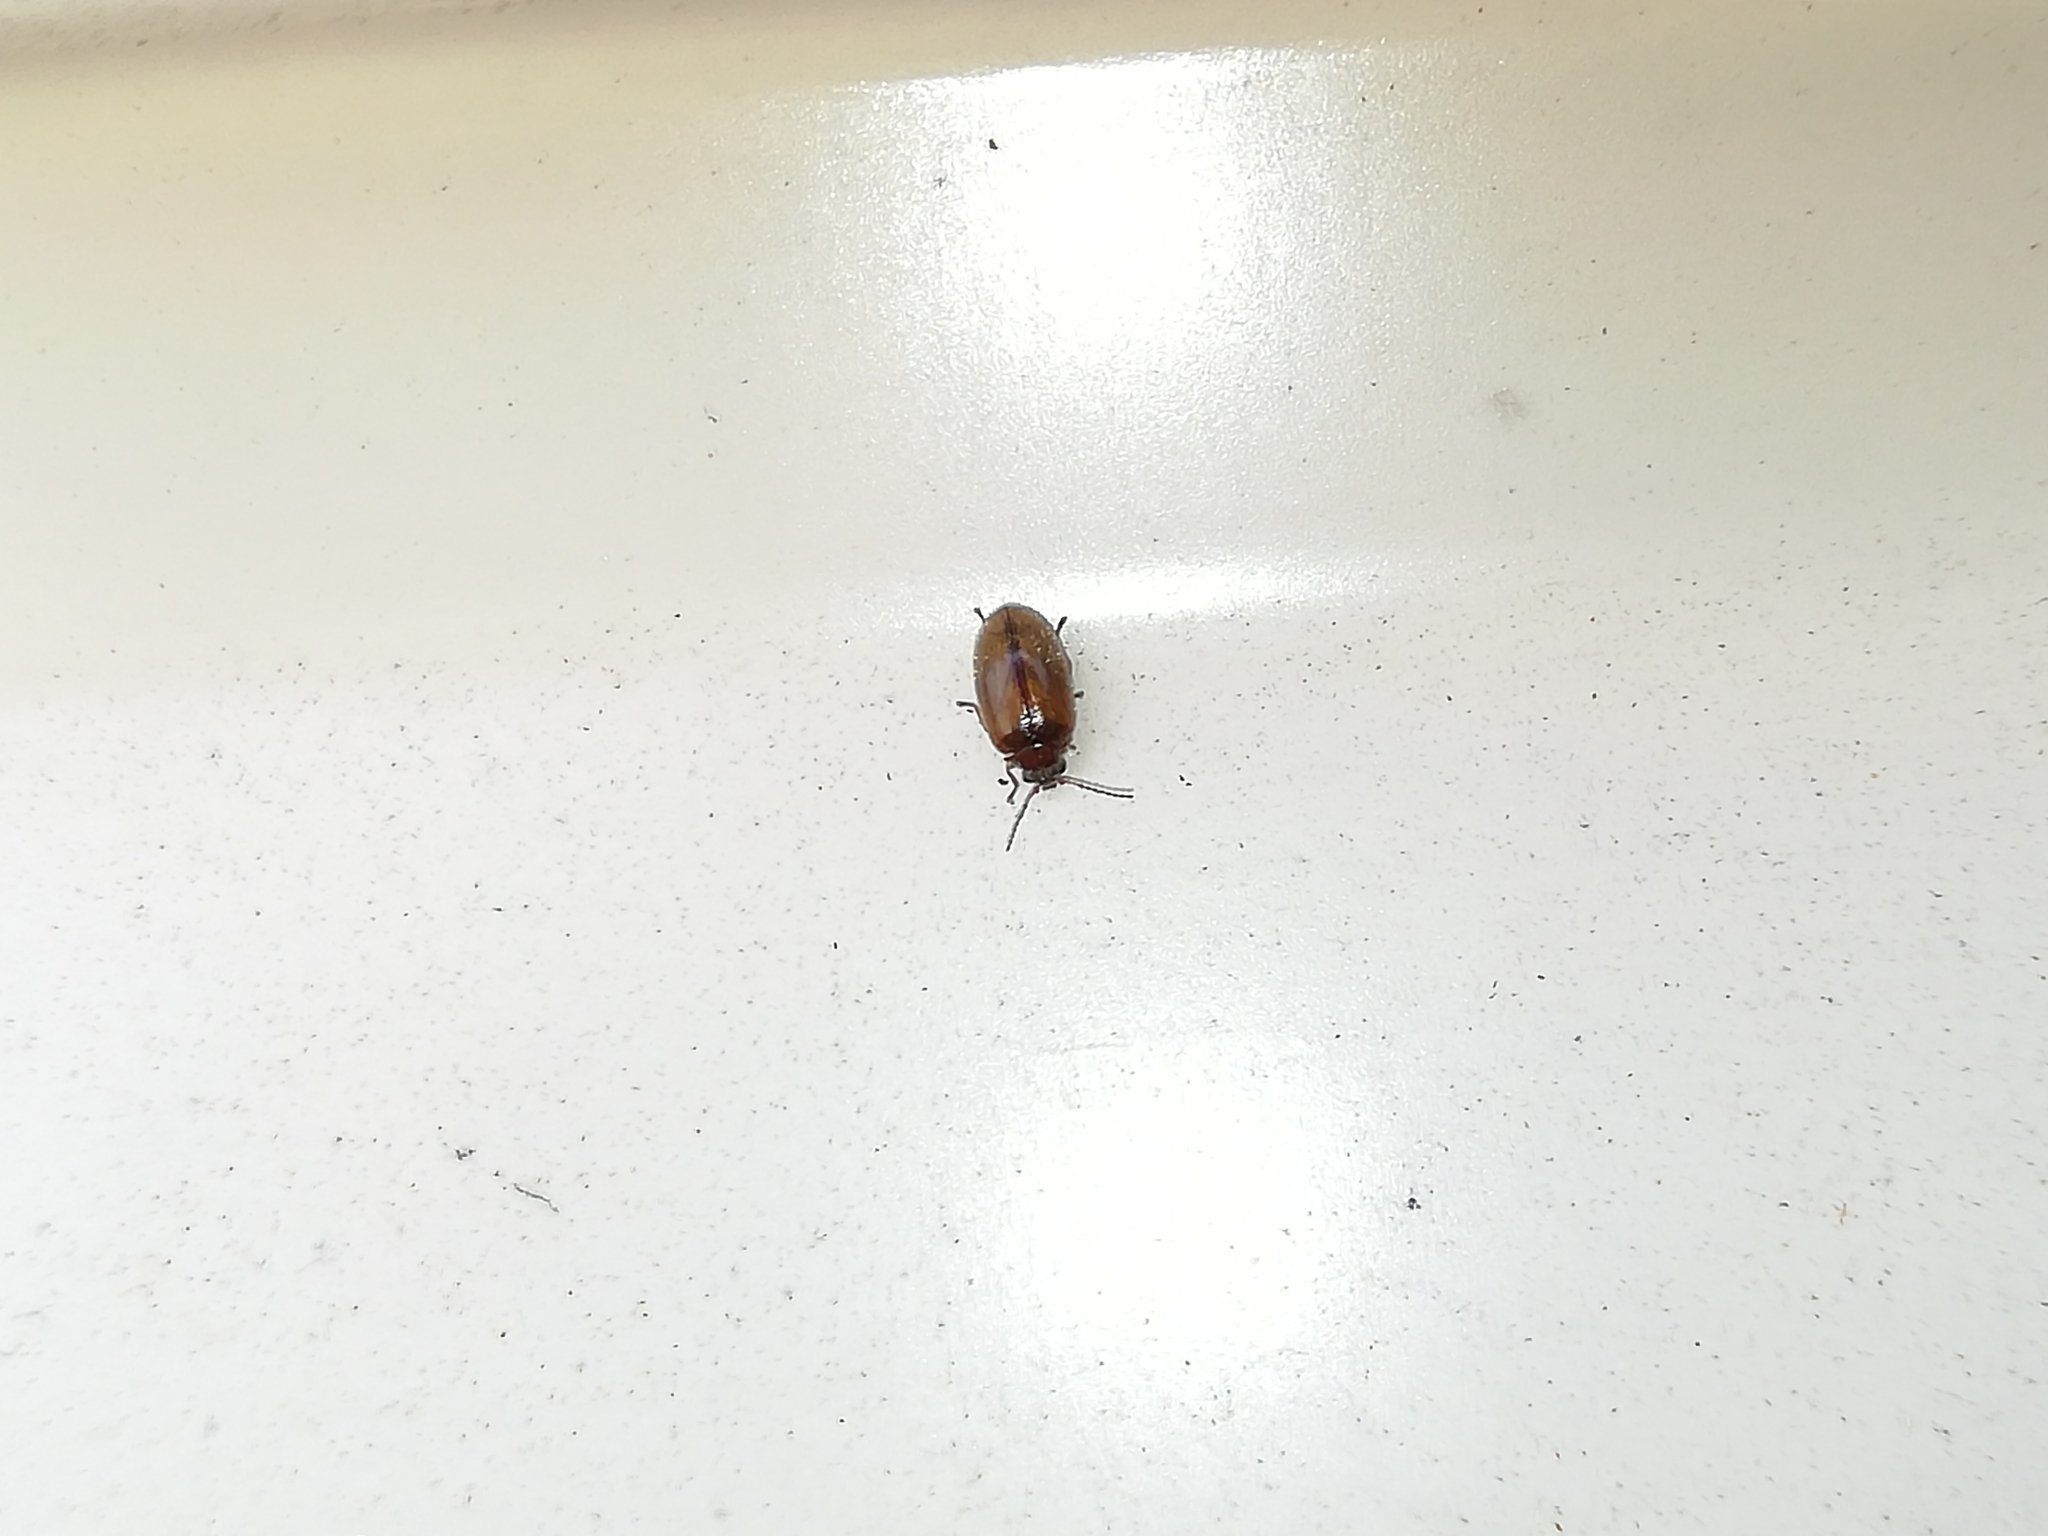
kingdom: Animalia
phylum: Arthropoda
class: Insecta
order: Coleoptera
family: Scirtidae
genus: Cyphon
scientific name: Cyphon variabilis
